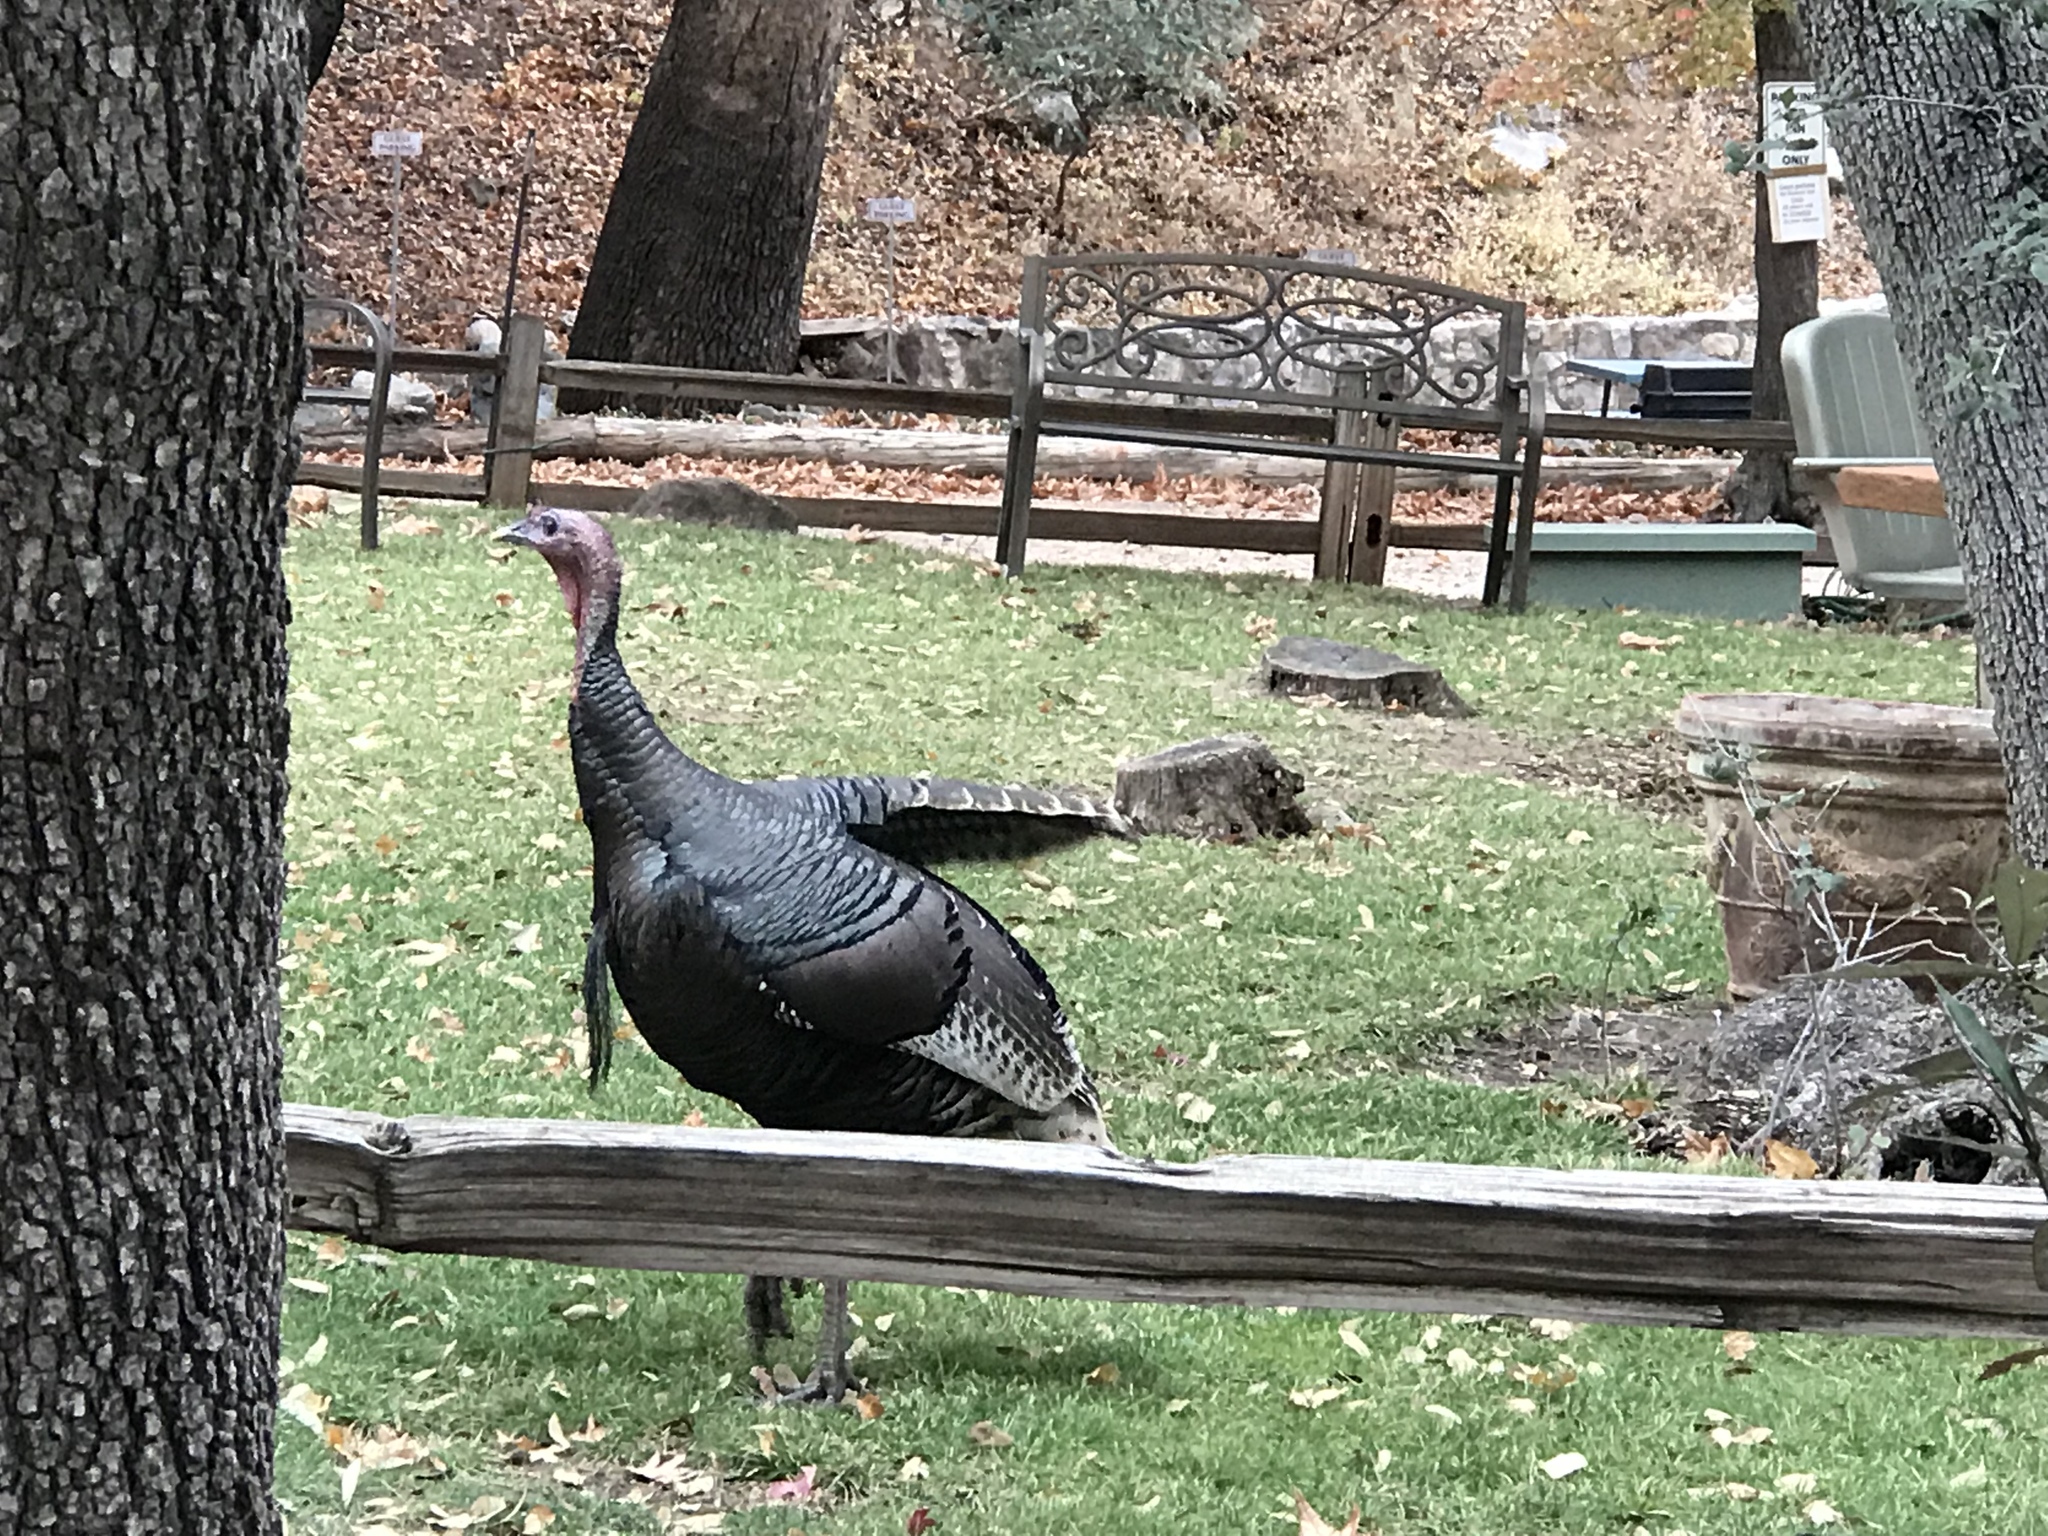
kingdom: Animalia
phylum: Chordata
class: Aves
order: Galliformes
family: Phasianidae
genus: Meleagris
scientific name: Meleagris gallopavo
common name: Wild turkey
